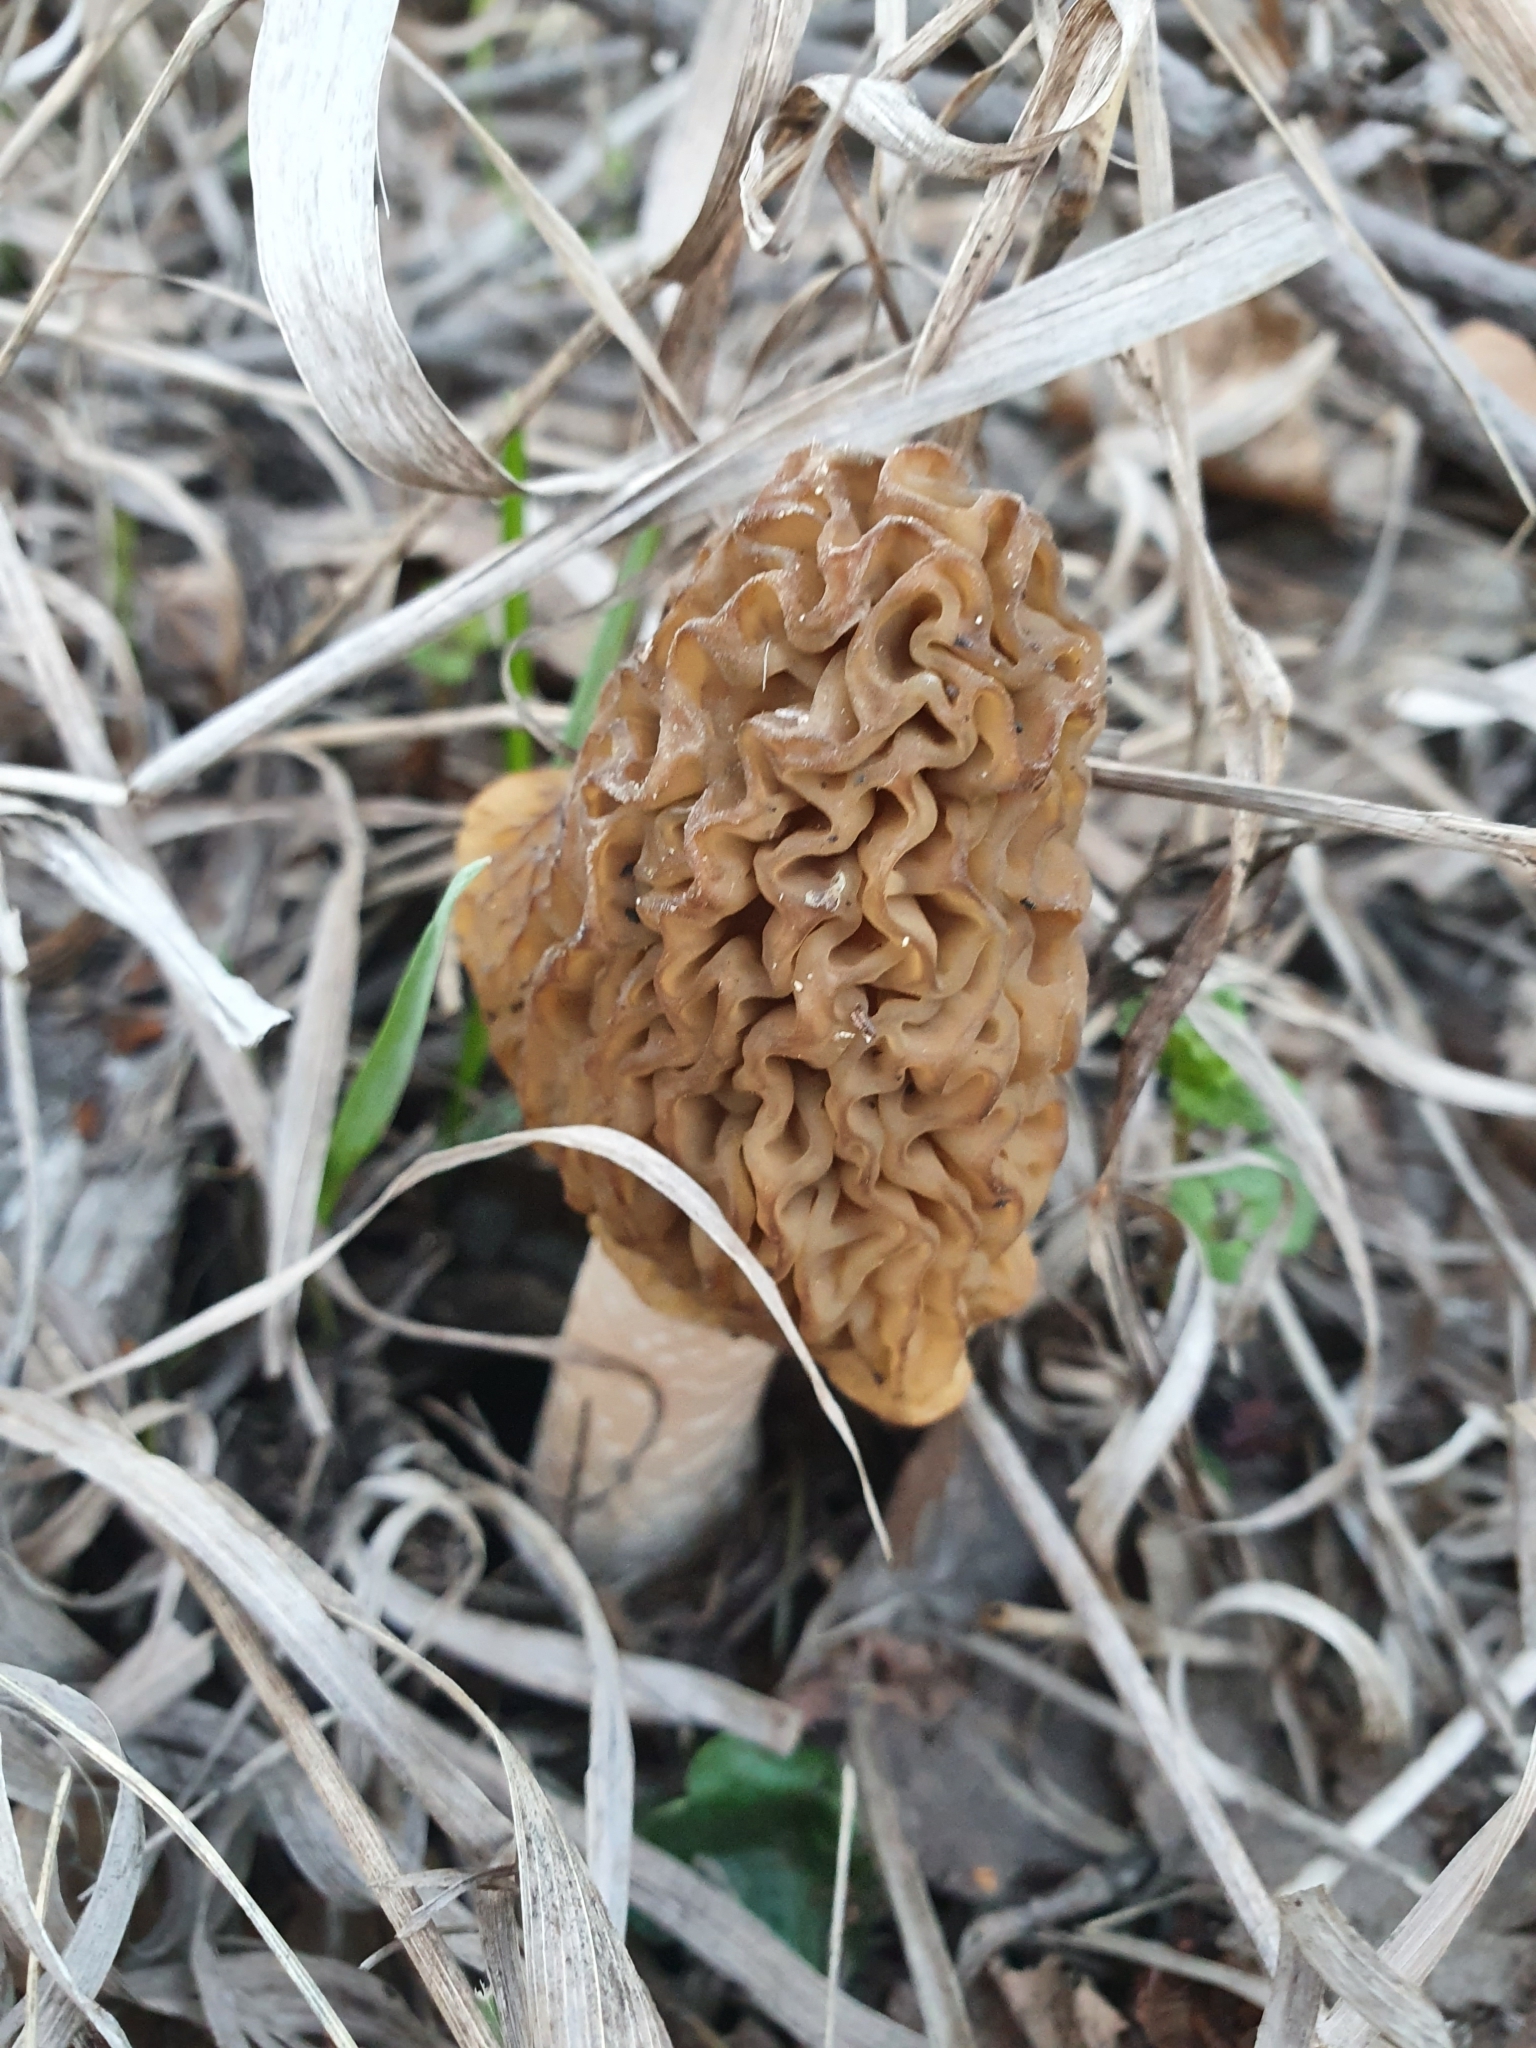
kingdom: Fungi
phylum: Ascomycota
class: Pezizomycetes
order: Pezizales
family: Morchellaceae
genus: Verpa
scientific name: Verpa bohemica
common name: Wrinkled thimble morel
